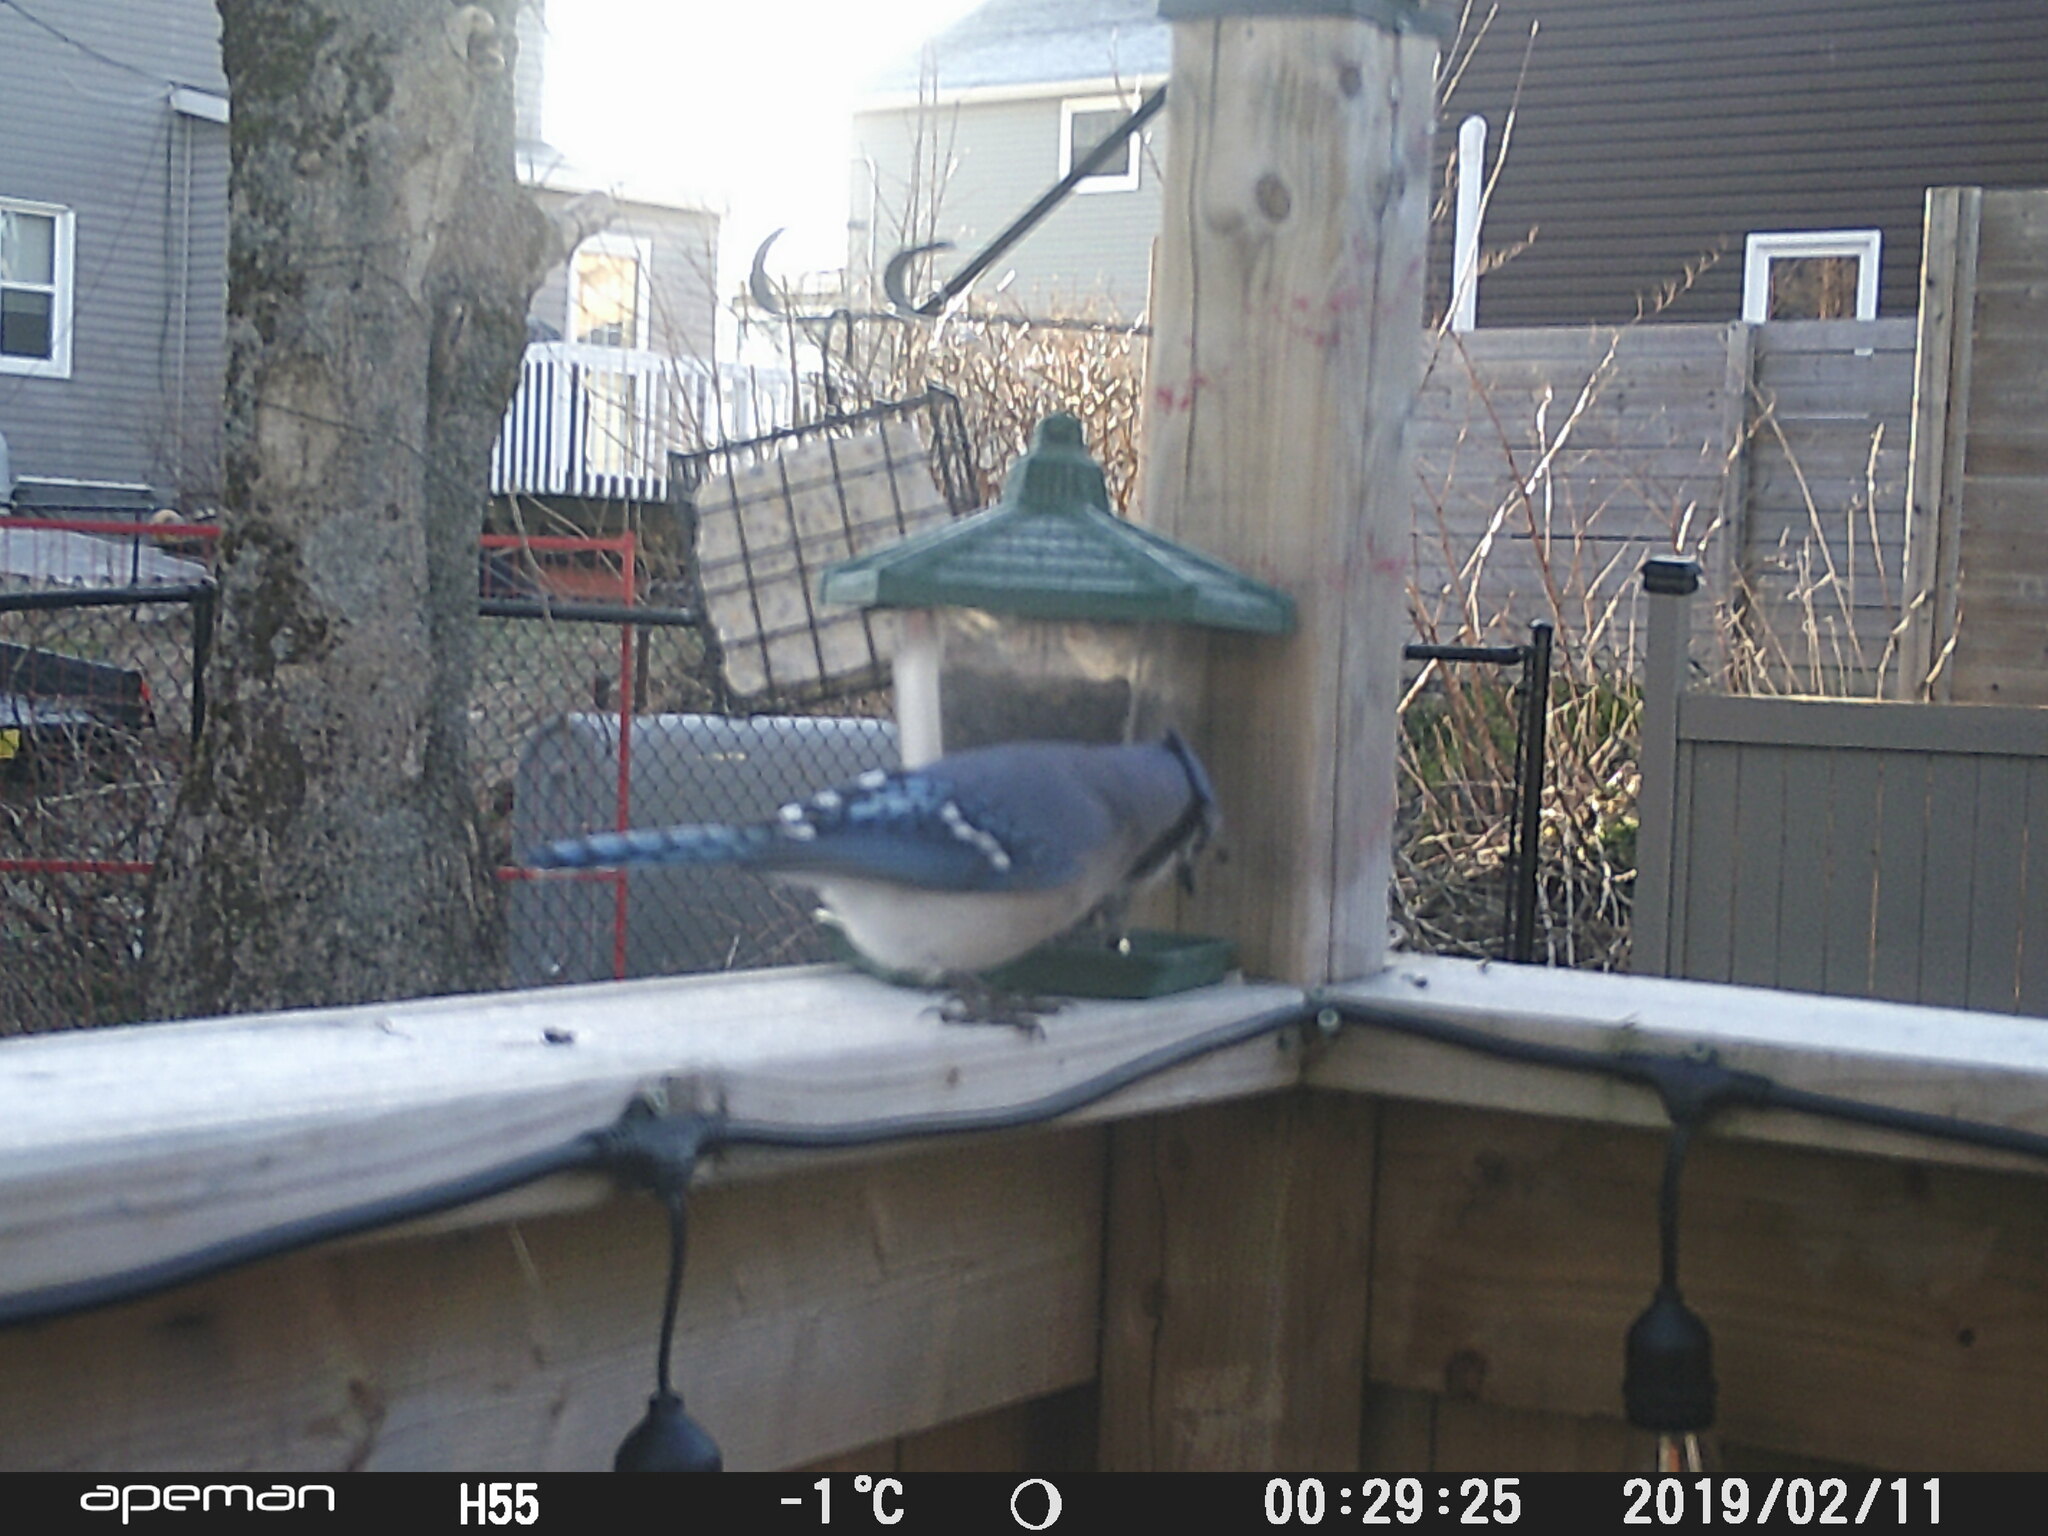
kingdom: Animalia
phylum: Chordata
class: Aves
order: Passeriformes
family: Corvidae
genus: Cyanocitta
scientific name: Cyanocitta cristata
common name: Blue jay
